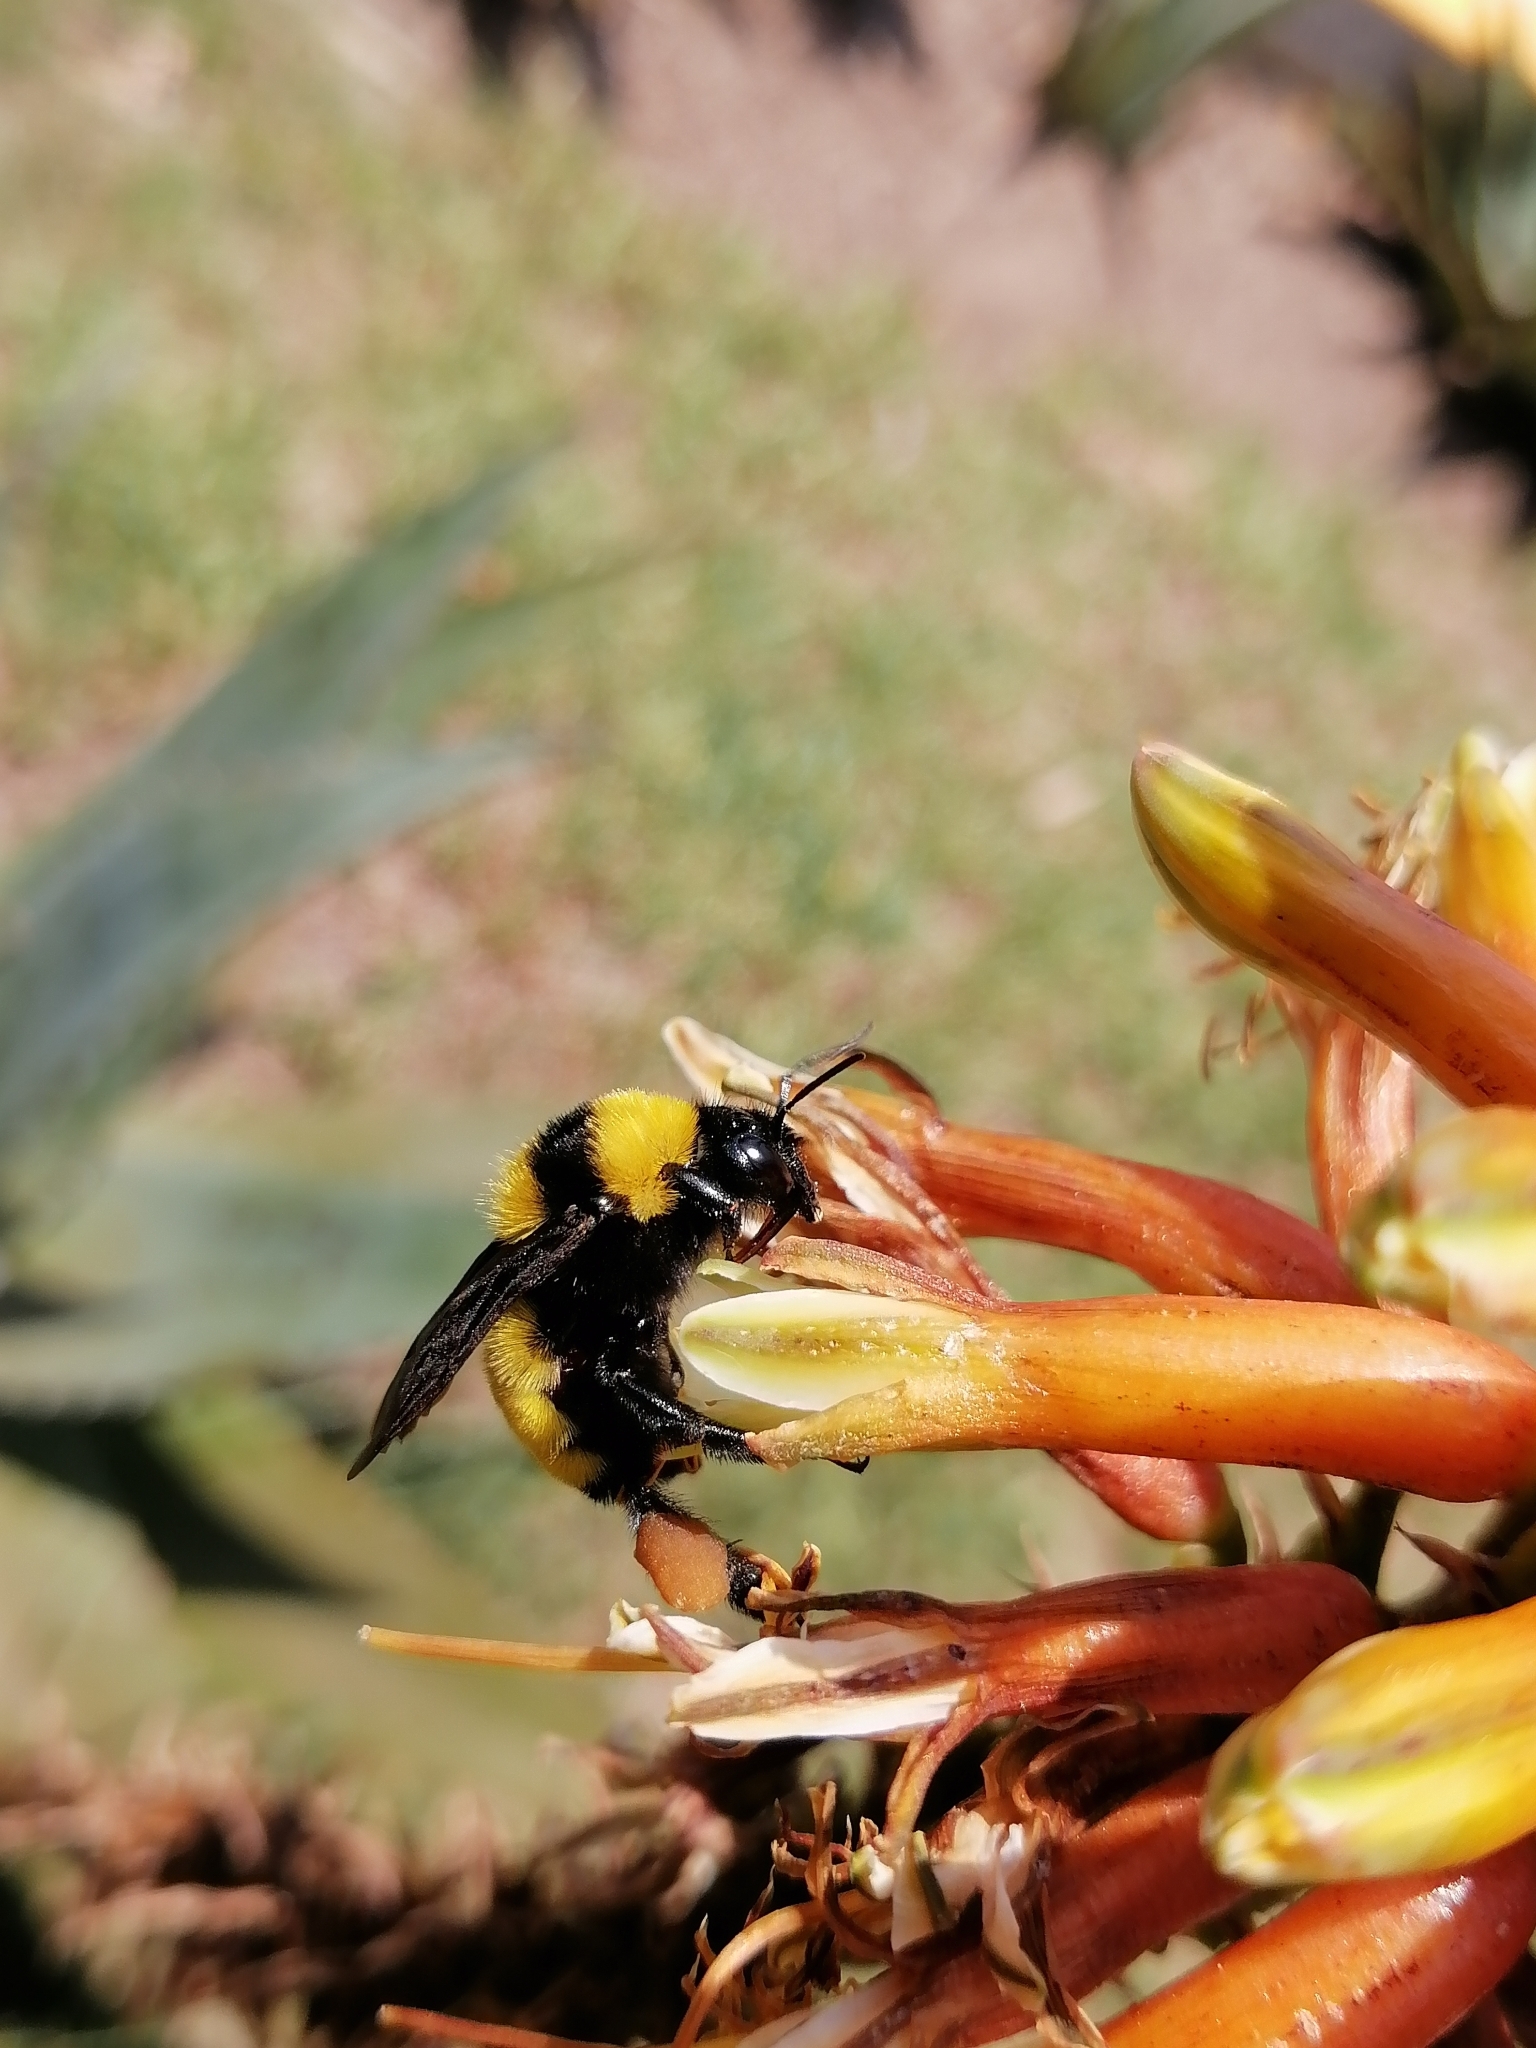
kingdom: Animalia
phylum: Arthropoda
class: Insecta
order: Hymenoptera
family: Apidae
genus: Bombus
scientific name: Bombus sonorus
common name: Sonoran bumble bee
